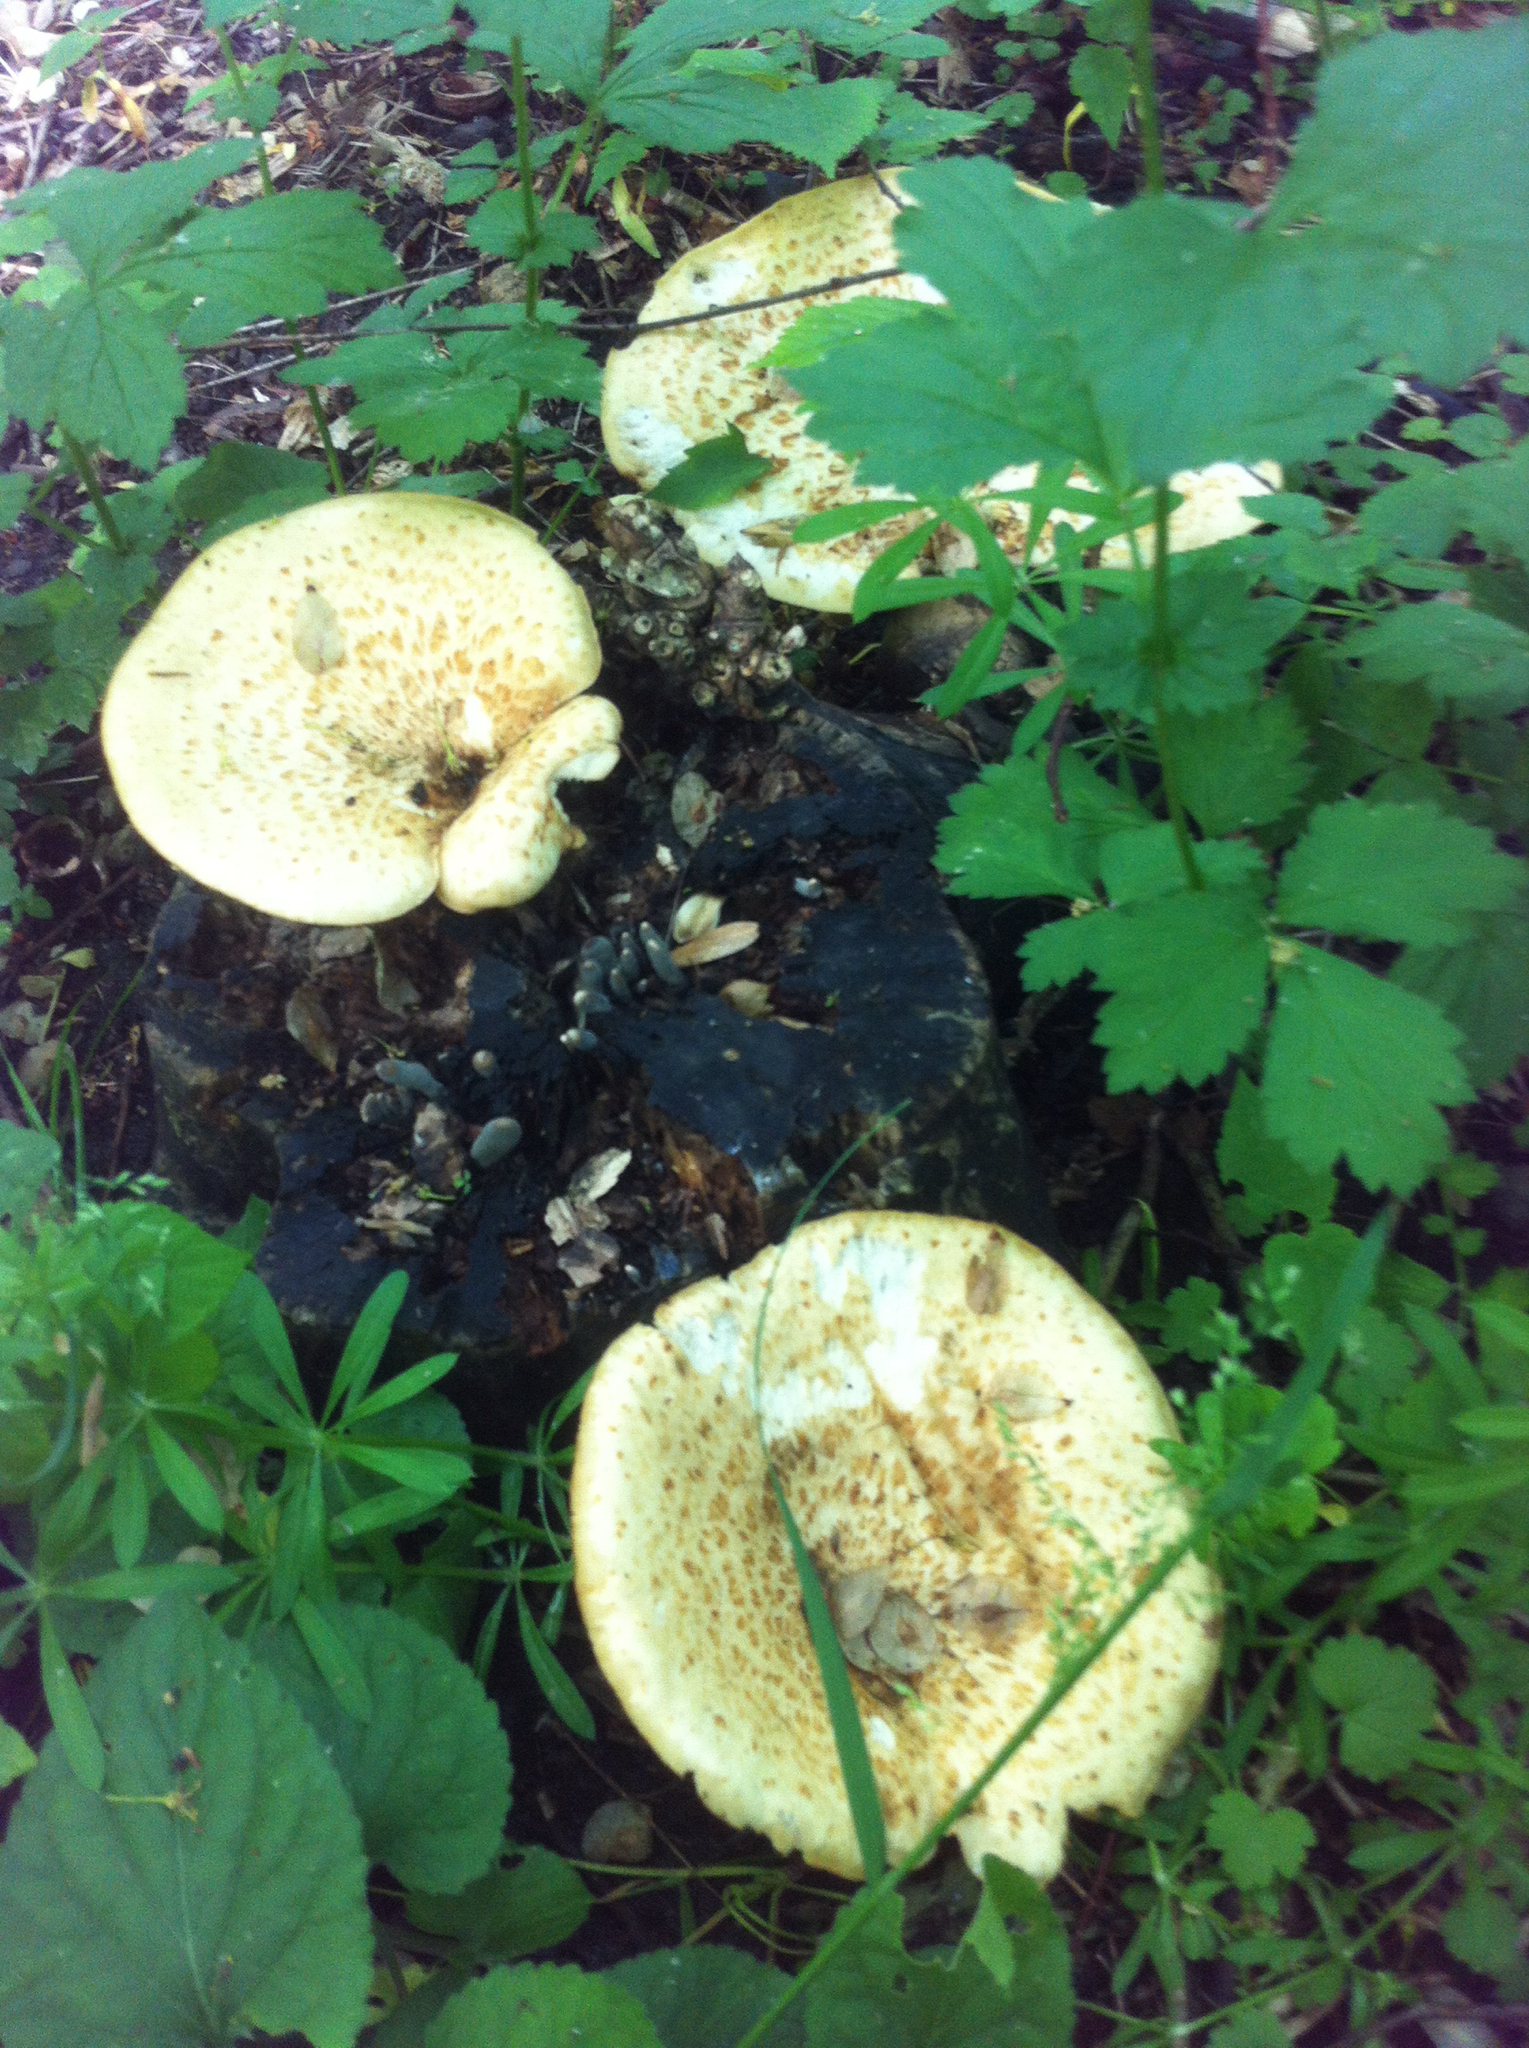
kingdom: Fungi
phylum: Basidiomycota
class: Agaricomycetes
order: Polyporales
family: Polyporaceae
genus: Cerioporus
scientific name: Cerioporus squamosus
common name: Dryad's saddle
